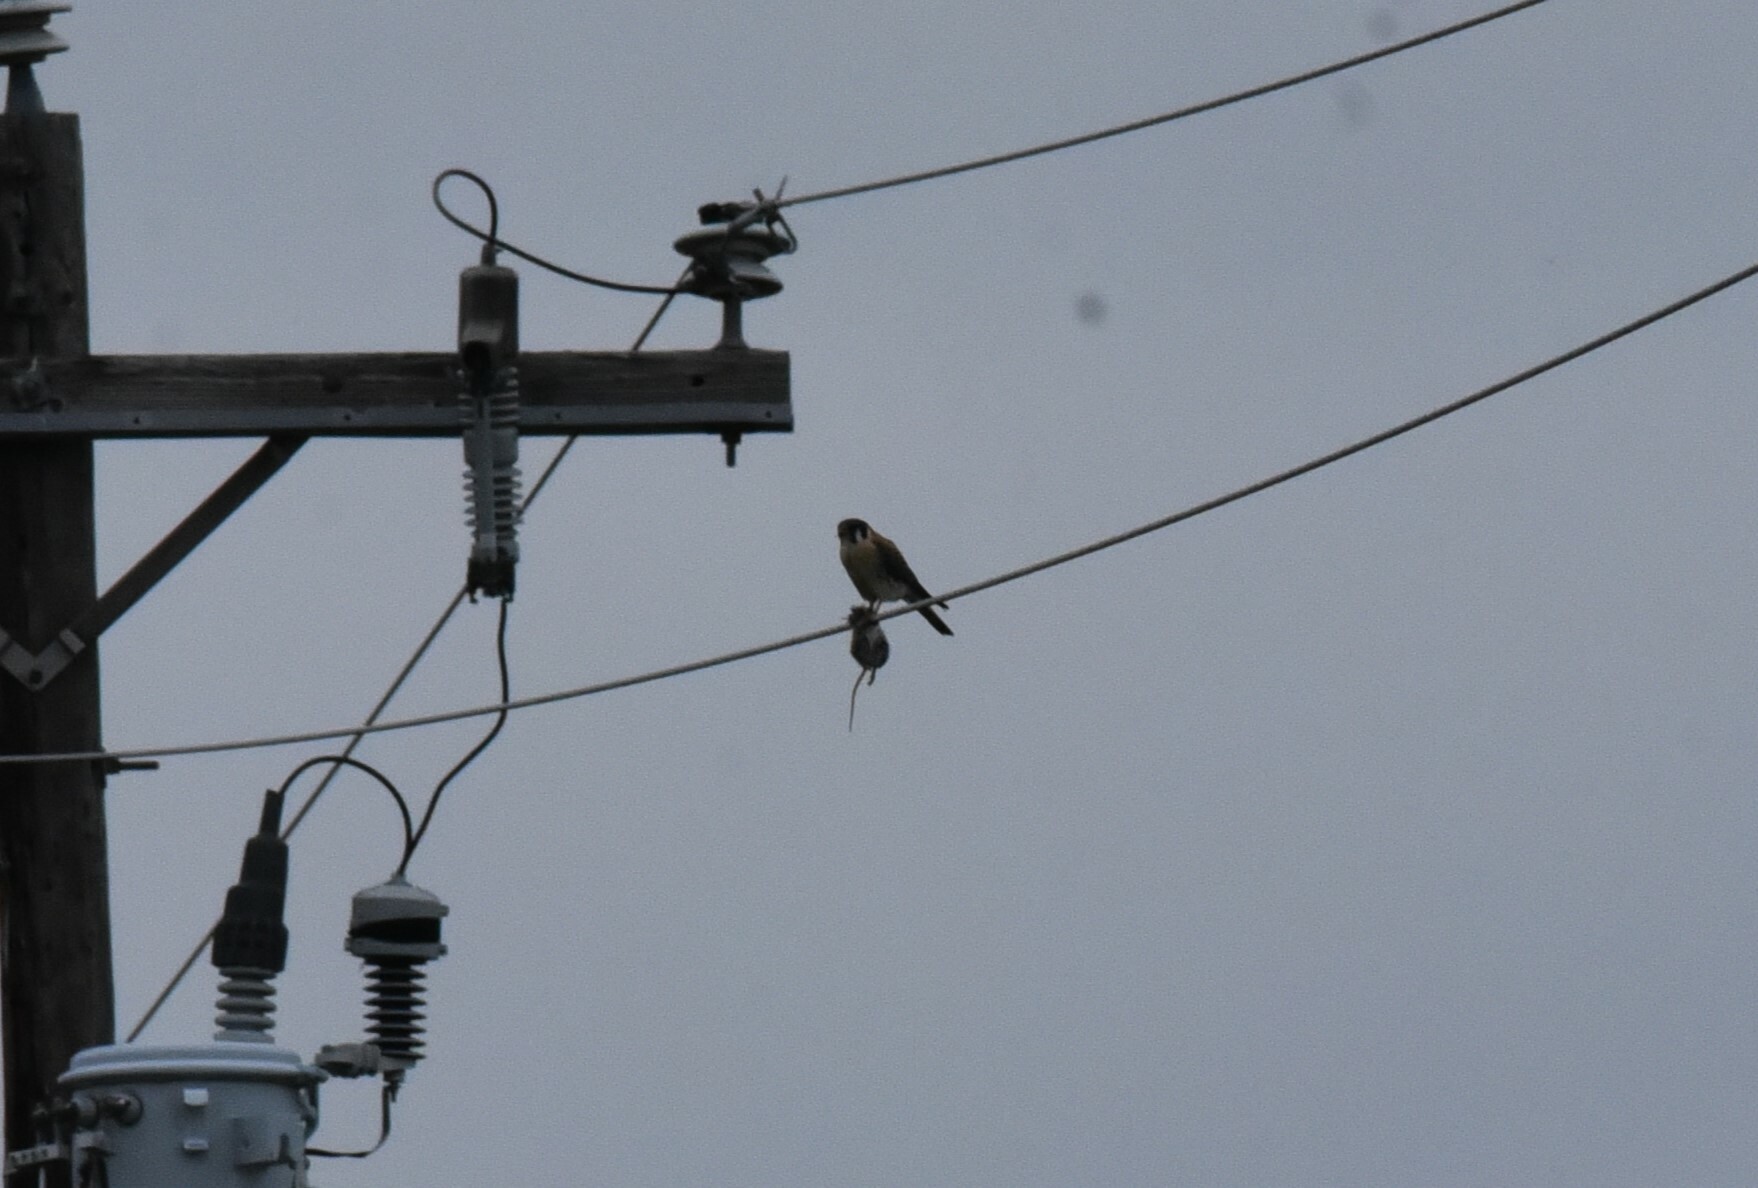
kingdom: Animalia
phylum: Chordata
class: Aves
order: Falconiformes
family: Falconidae
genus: Falco
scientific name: Falco sparverius
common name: American kestrel
